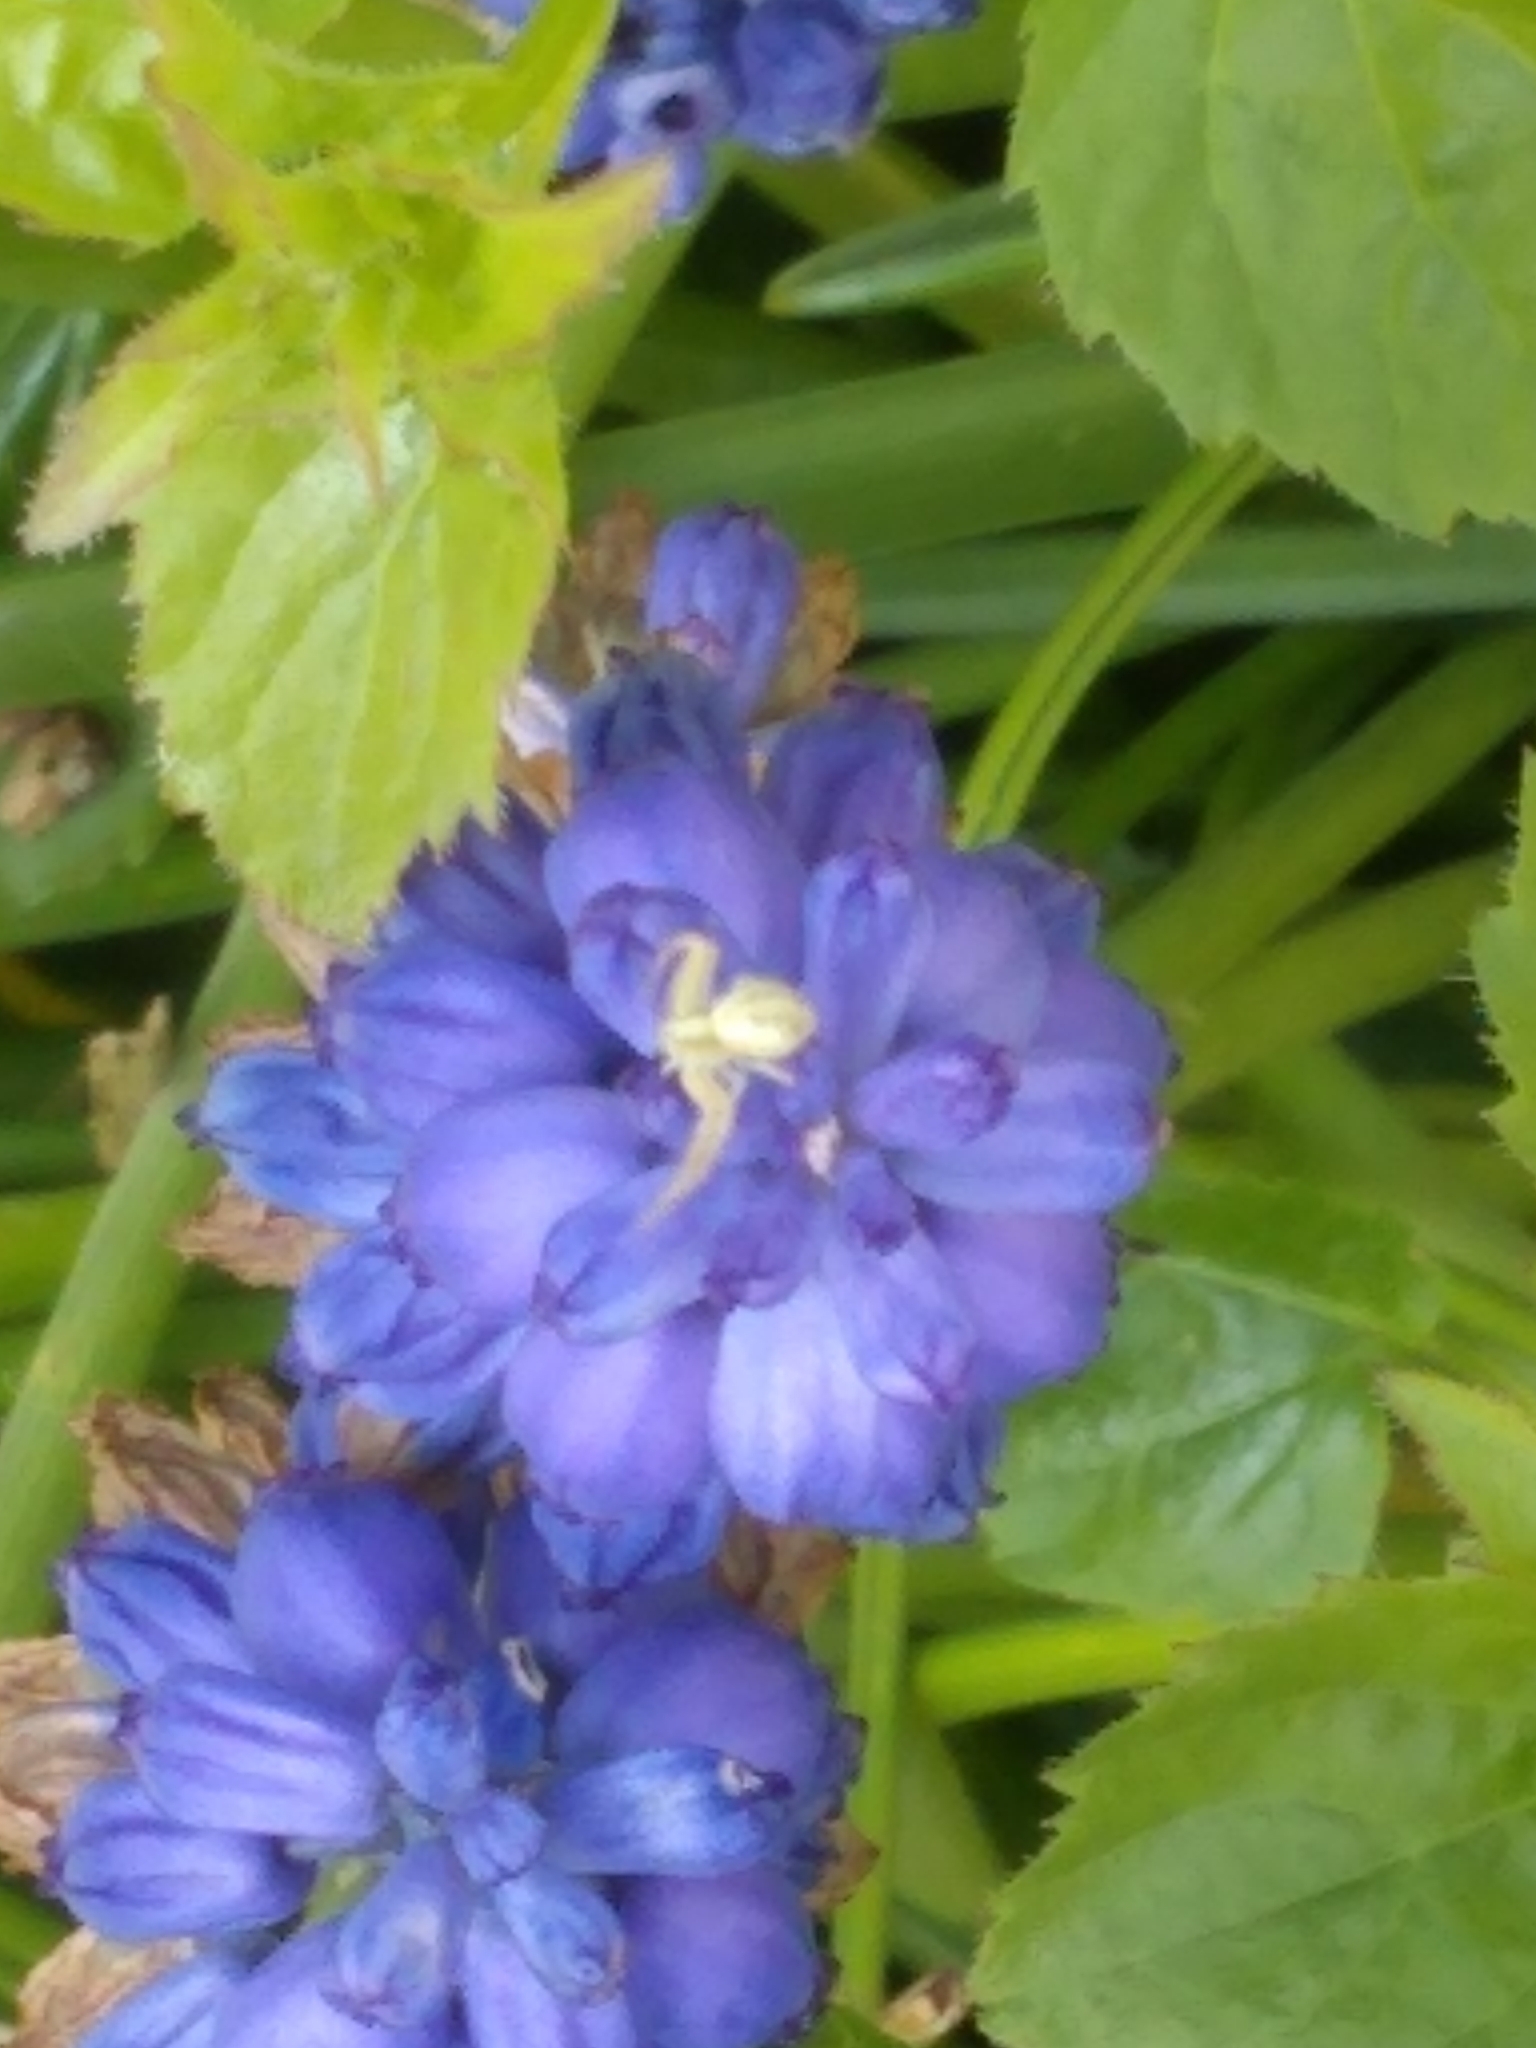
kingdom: Animalia
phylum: Arthropoda
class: Arachnida
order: Araneae
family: Thomisidae
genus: Misumena
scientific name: Misumena vatia
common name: Goldenrod crab spider
